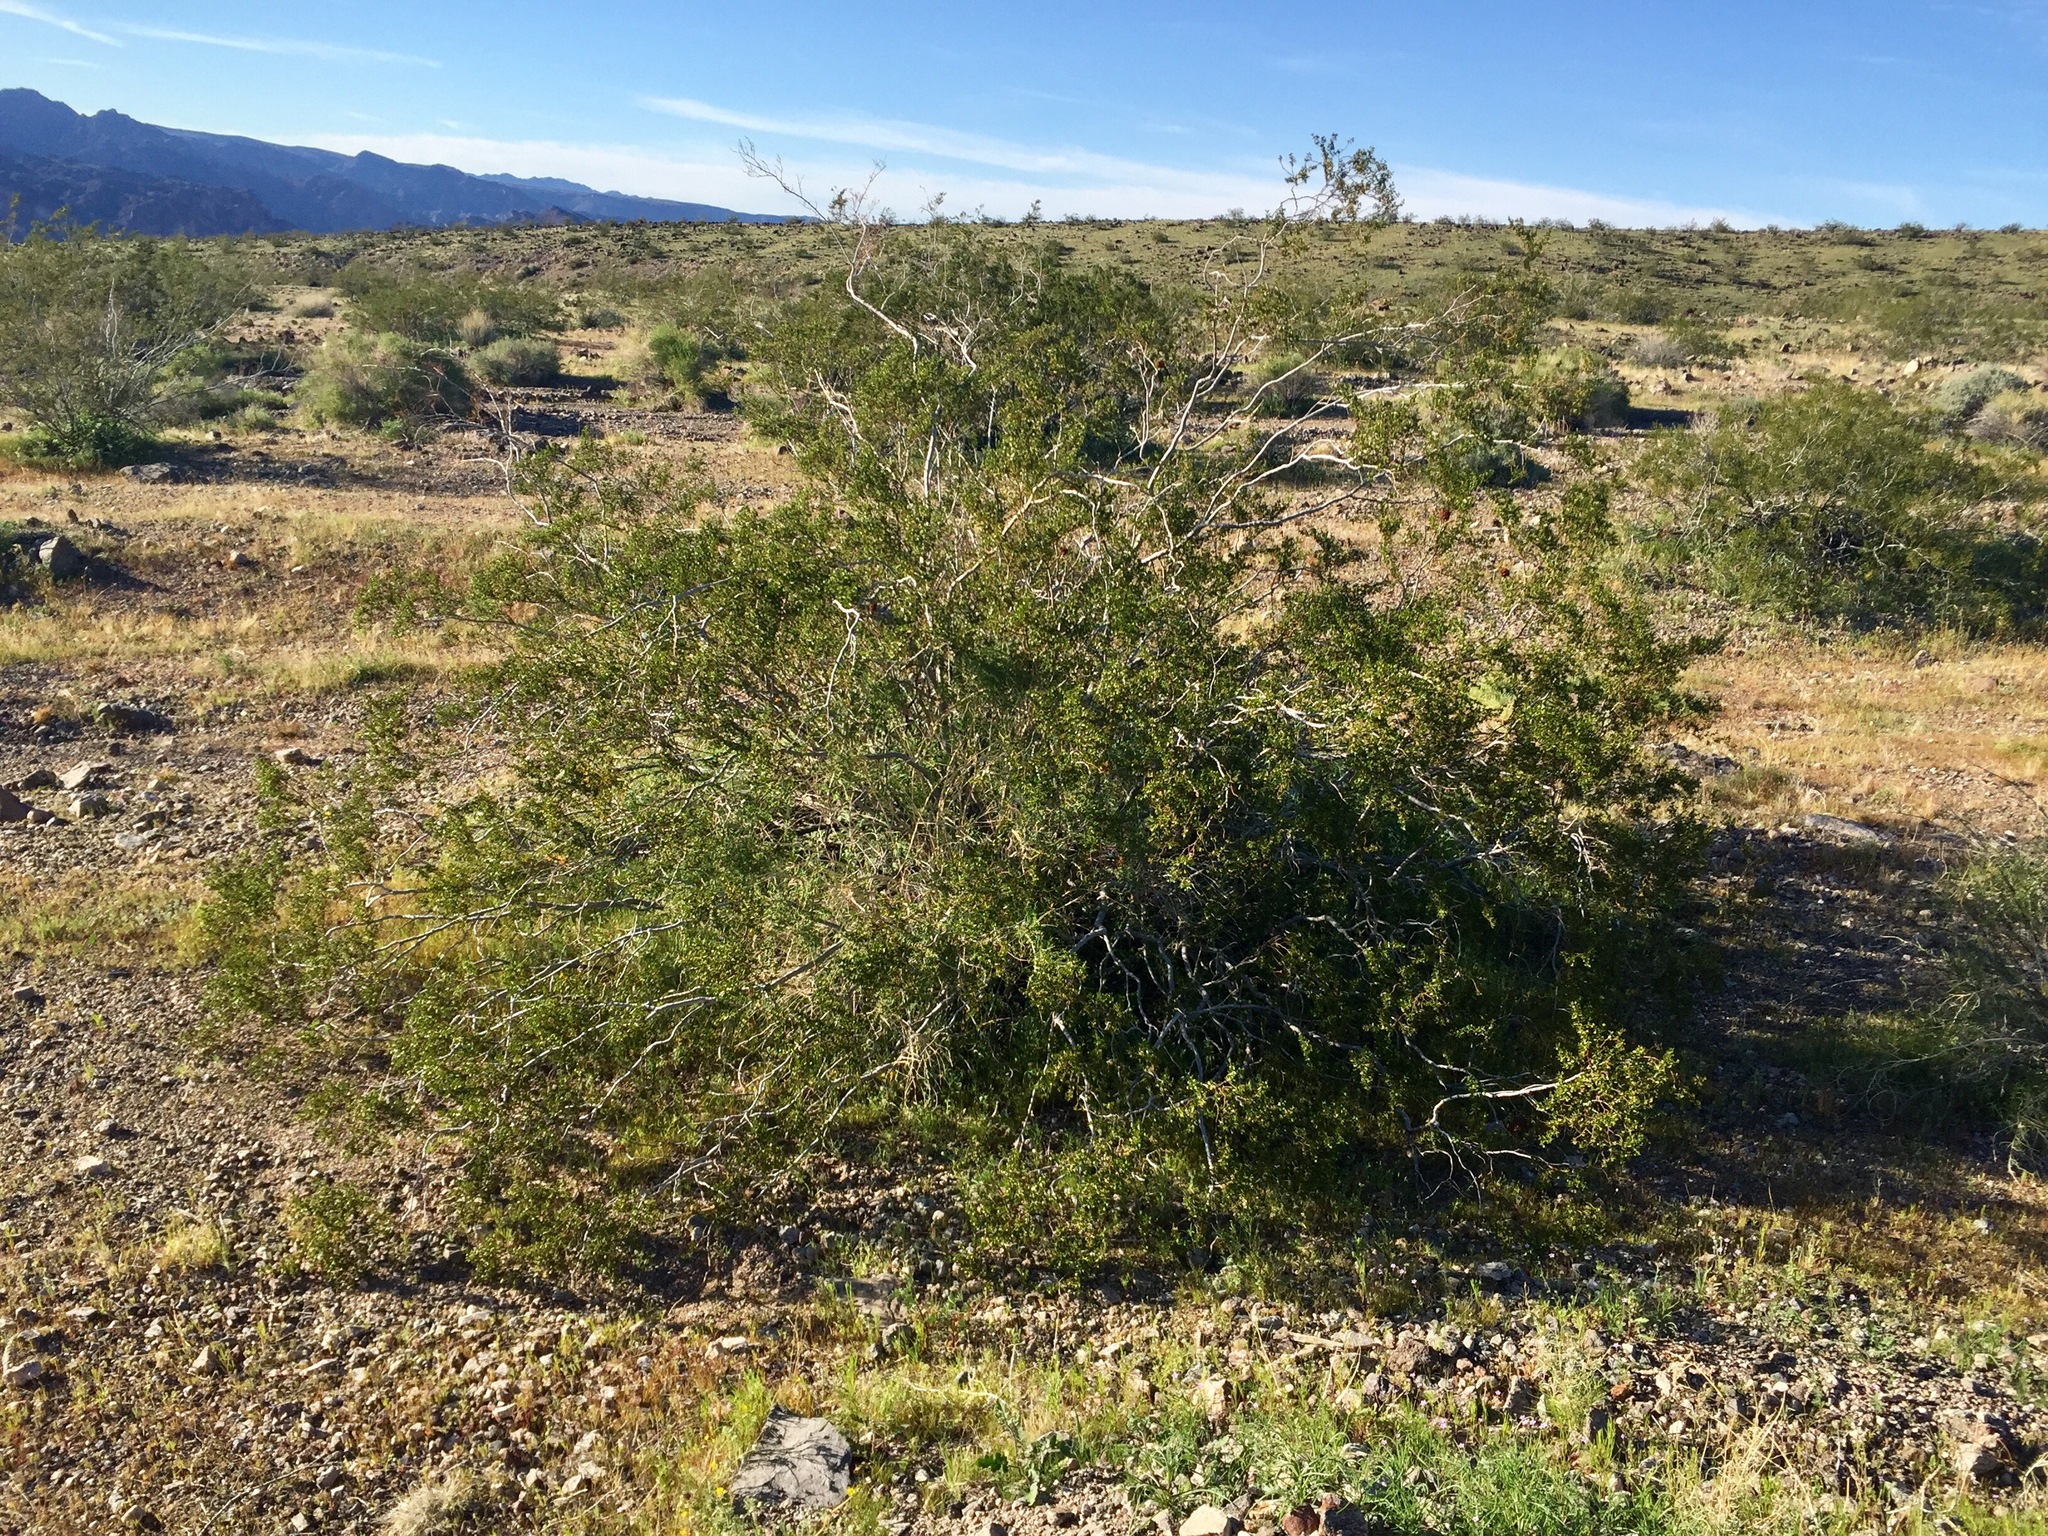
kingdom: Plantae
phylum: Tracheophyta
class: Magnoliopsida
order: Zygophyllales
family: Zygophyllaceae
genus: Larrea
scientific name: Larrea tridentata
